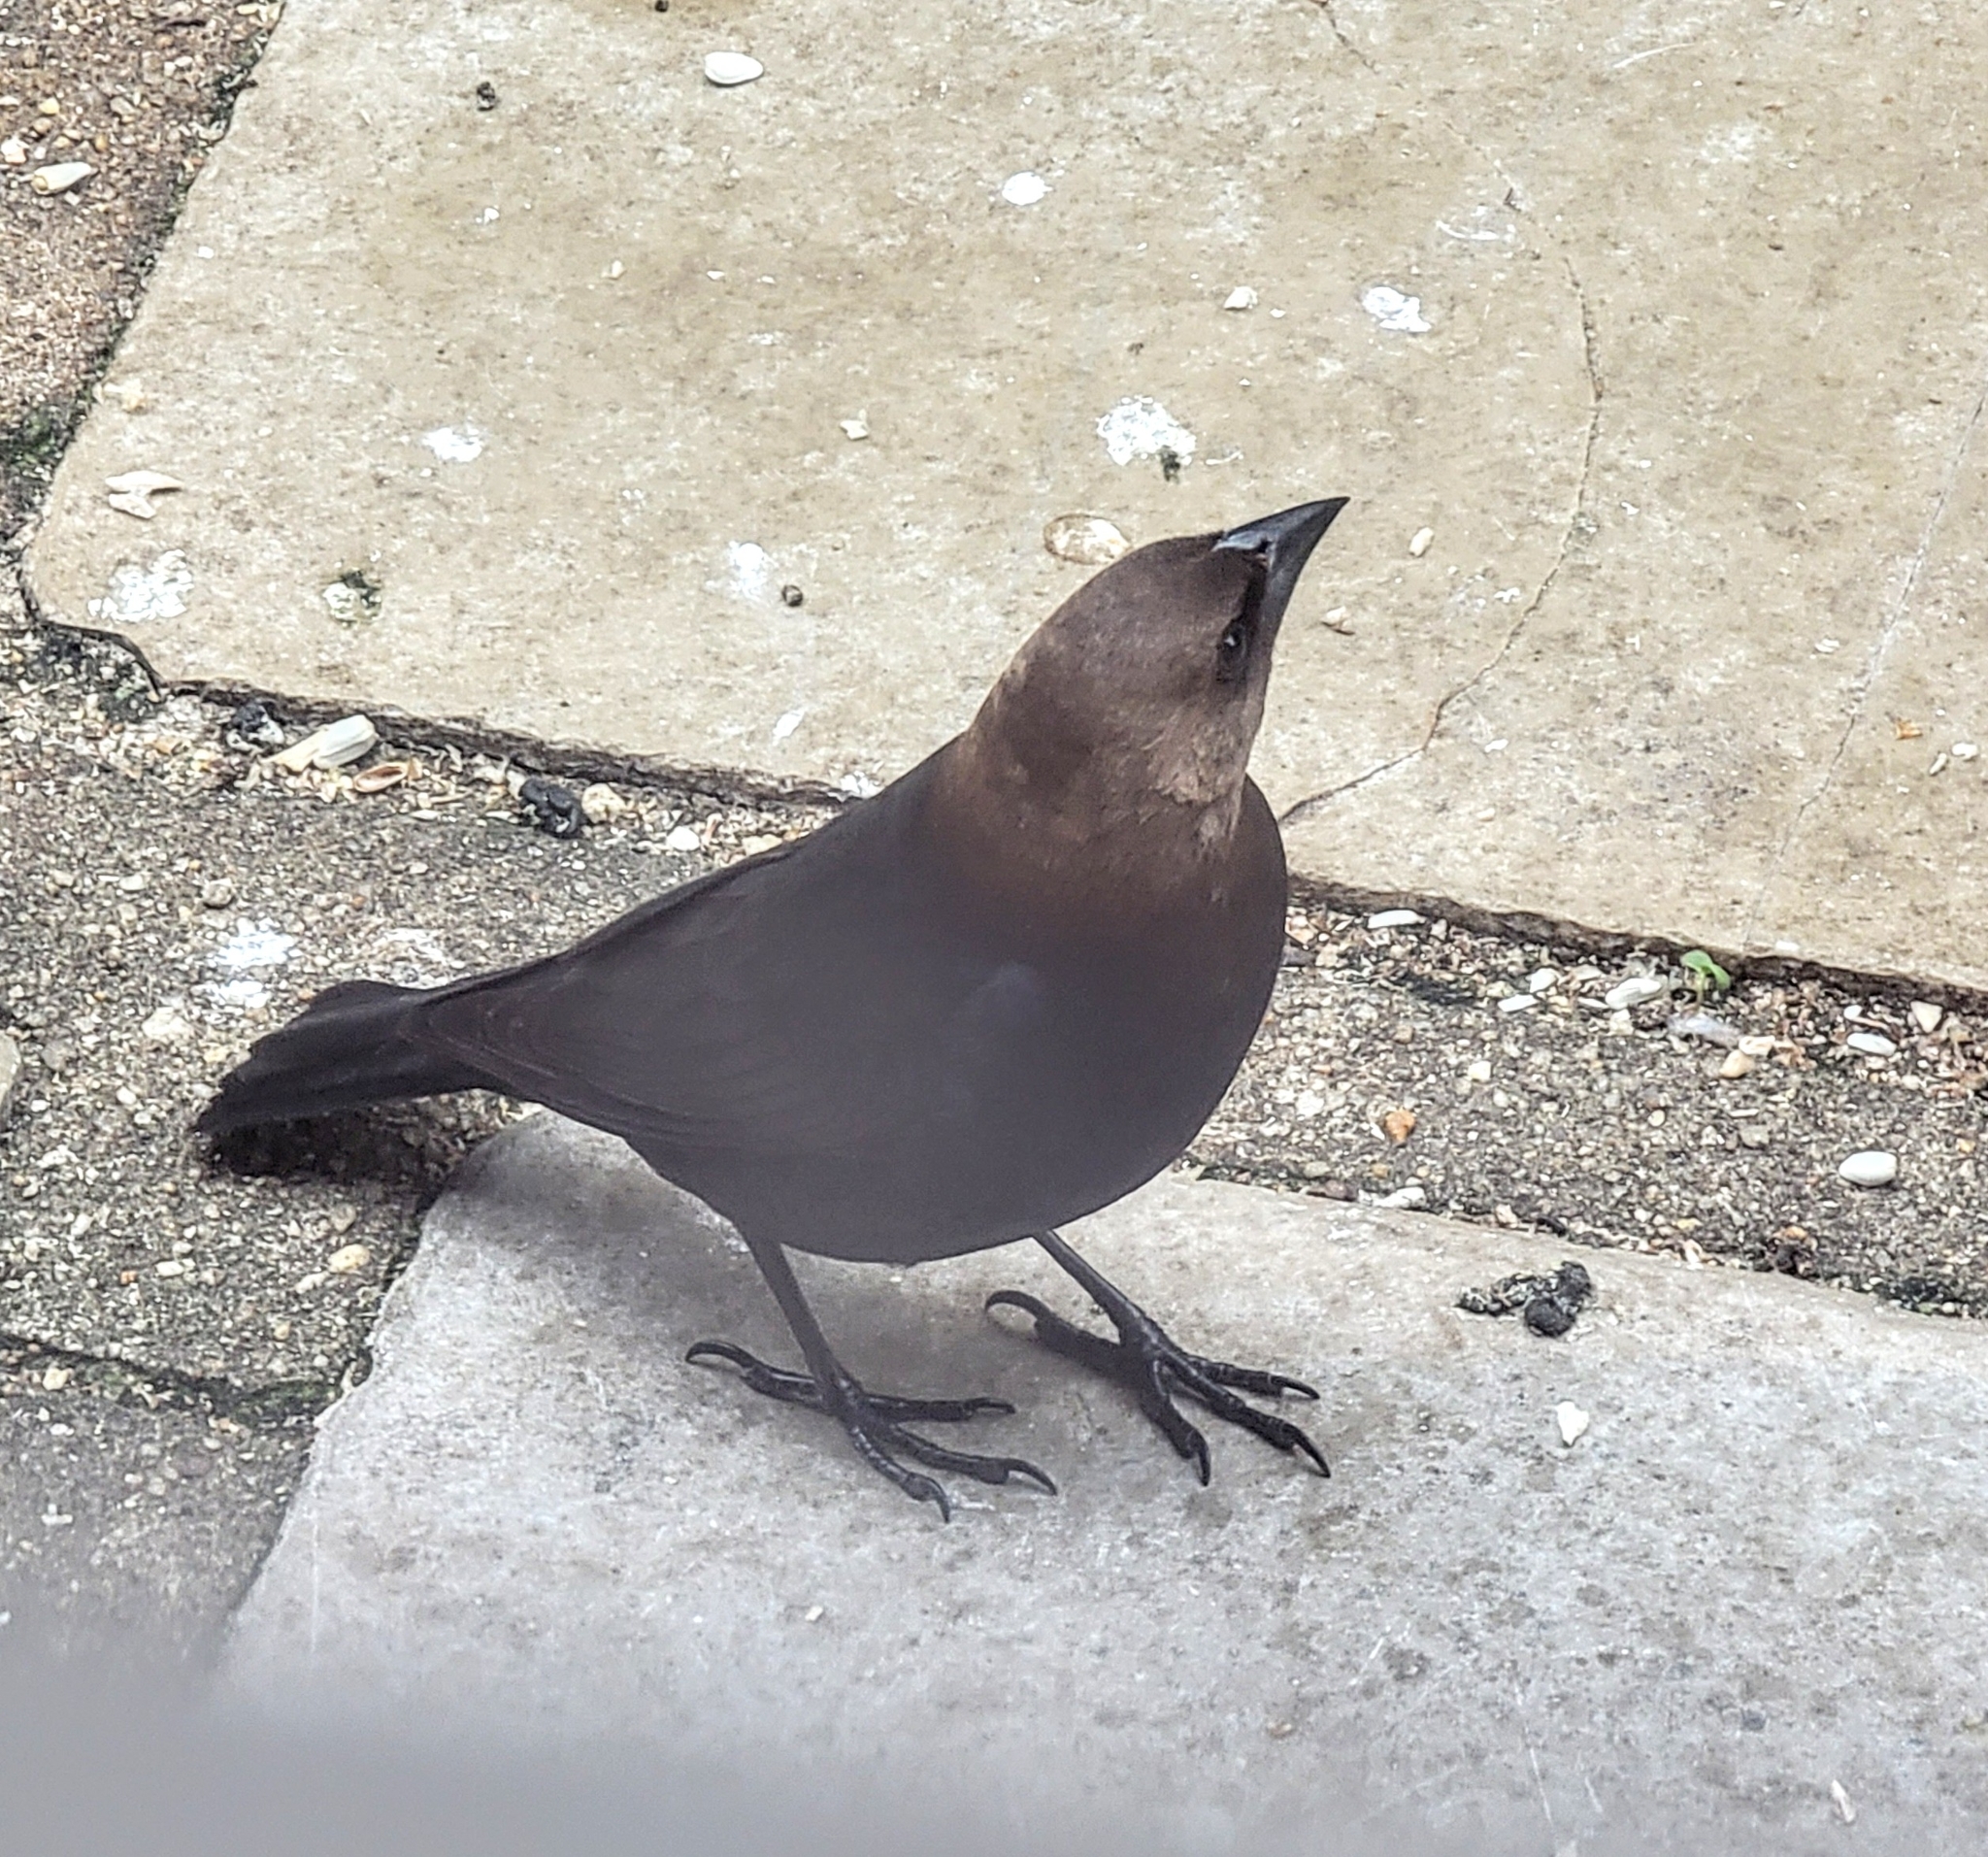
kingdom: Animalia
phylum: Chordata
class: Aves
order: Passeriformes
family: Icteridae
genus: Molothrus
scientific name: Molothrus ater
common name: Brown-headed cowbird
